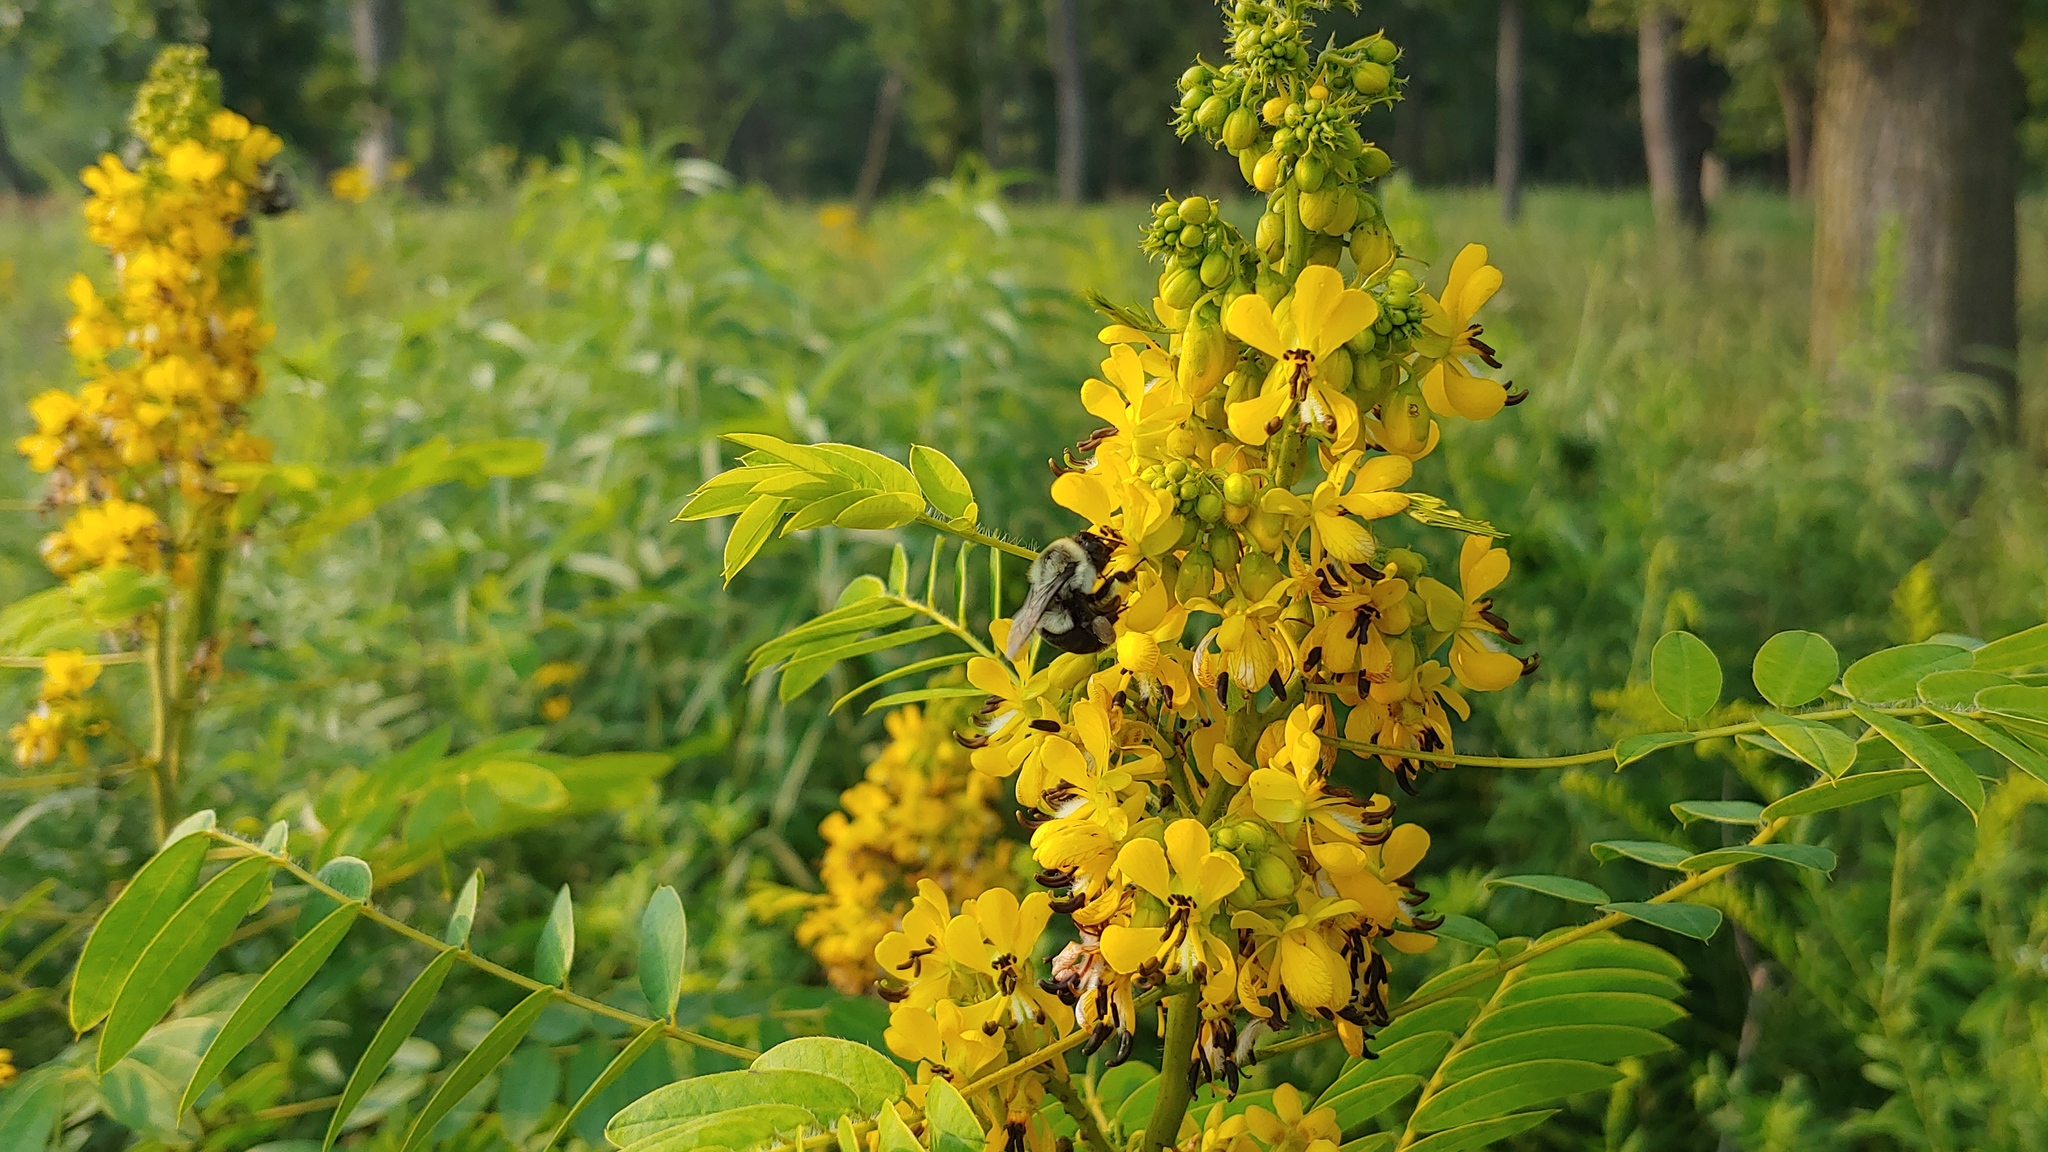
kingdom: Plantae
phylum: Tracheophyta
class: Magnoliopsida
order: Fabales
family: Fabaceae
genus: Senna
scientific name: Senna hebecarpa
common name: Wild senna
